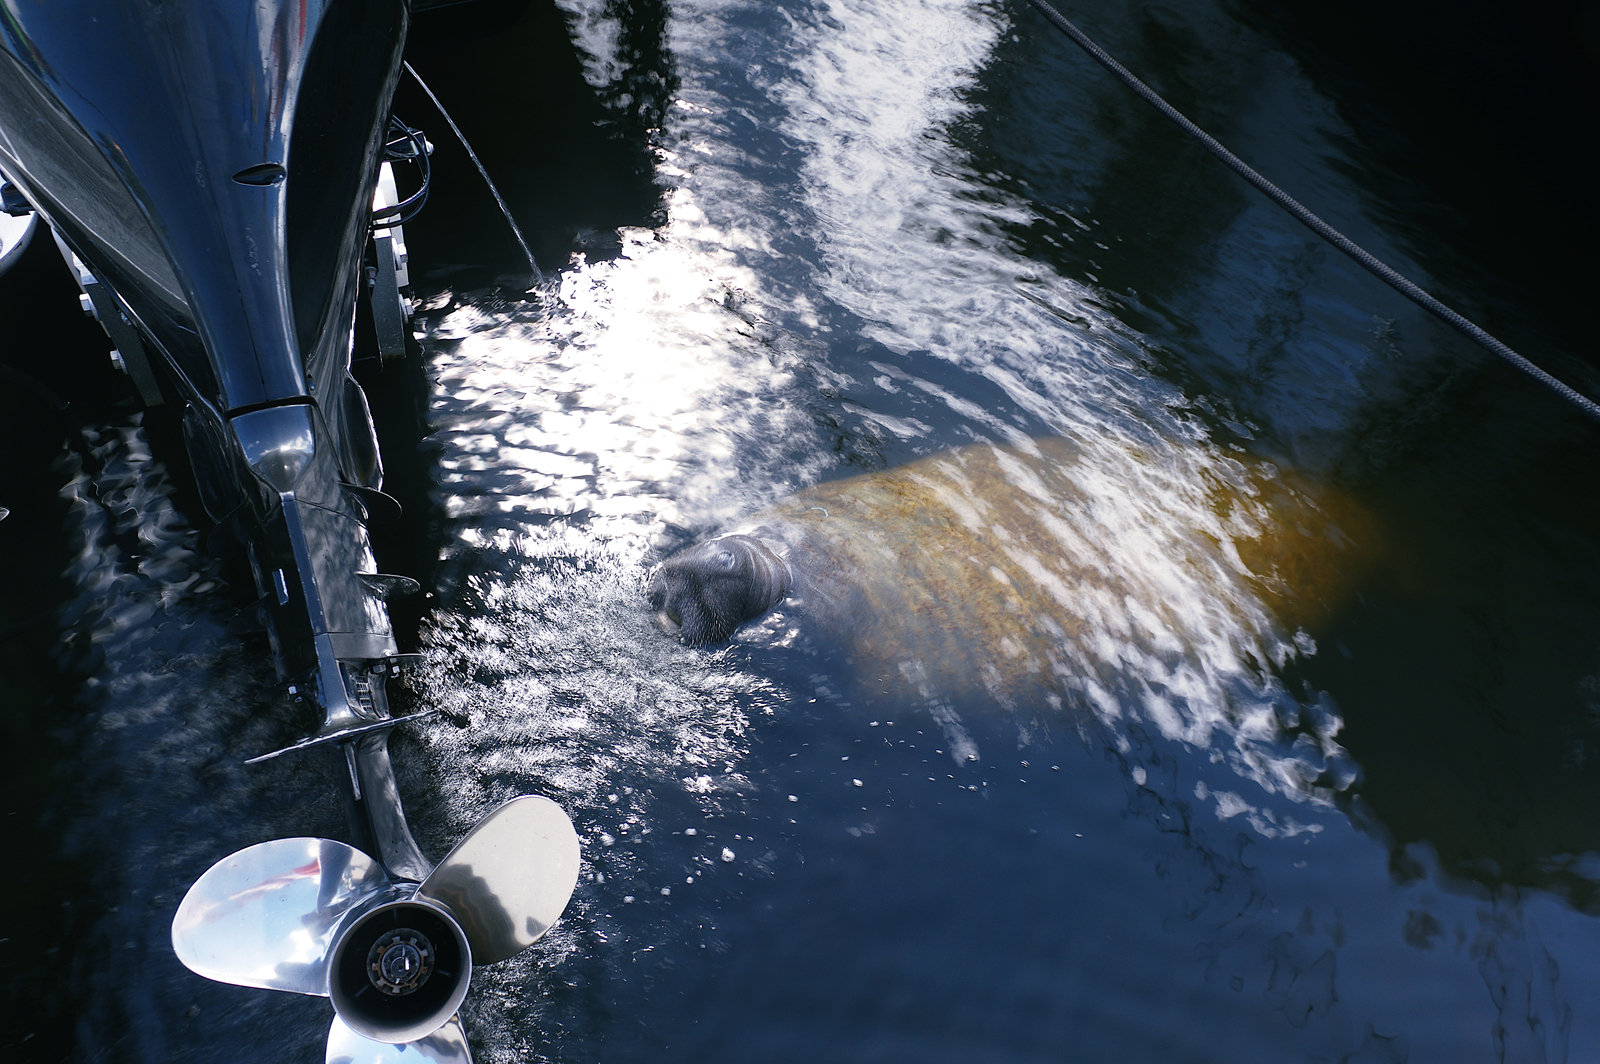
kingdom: Animalia
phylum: Chordata
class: Mammalia
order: Sirenia
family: Trichechidae
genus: Trichechus
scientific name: Trichechus manatus
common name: West indian manatee
